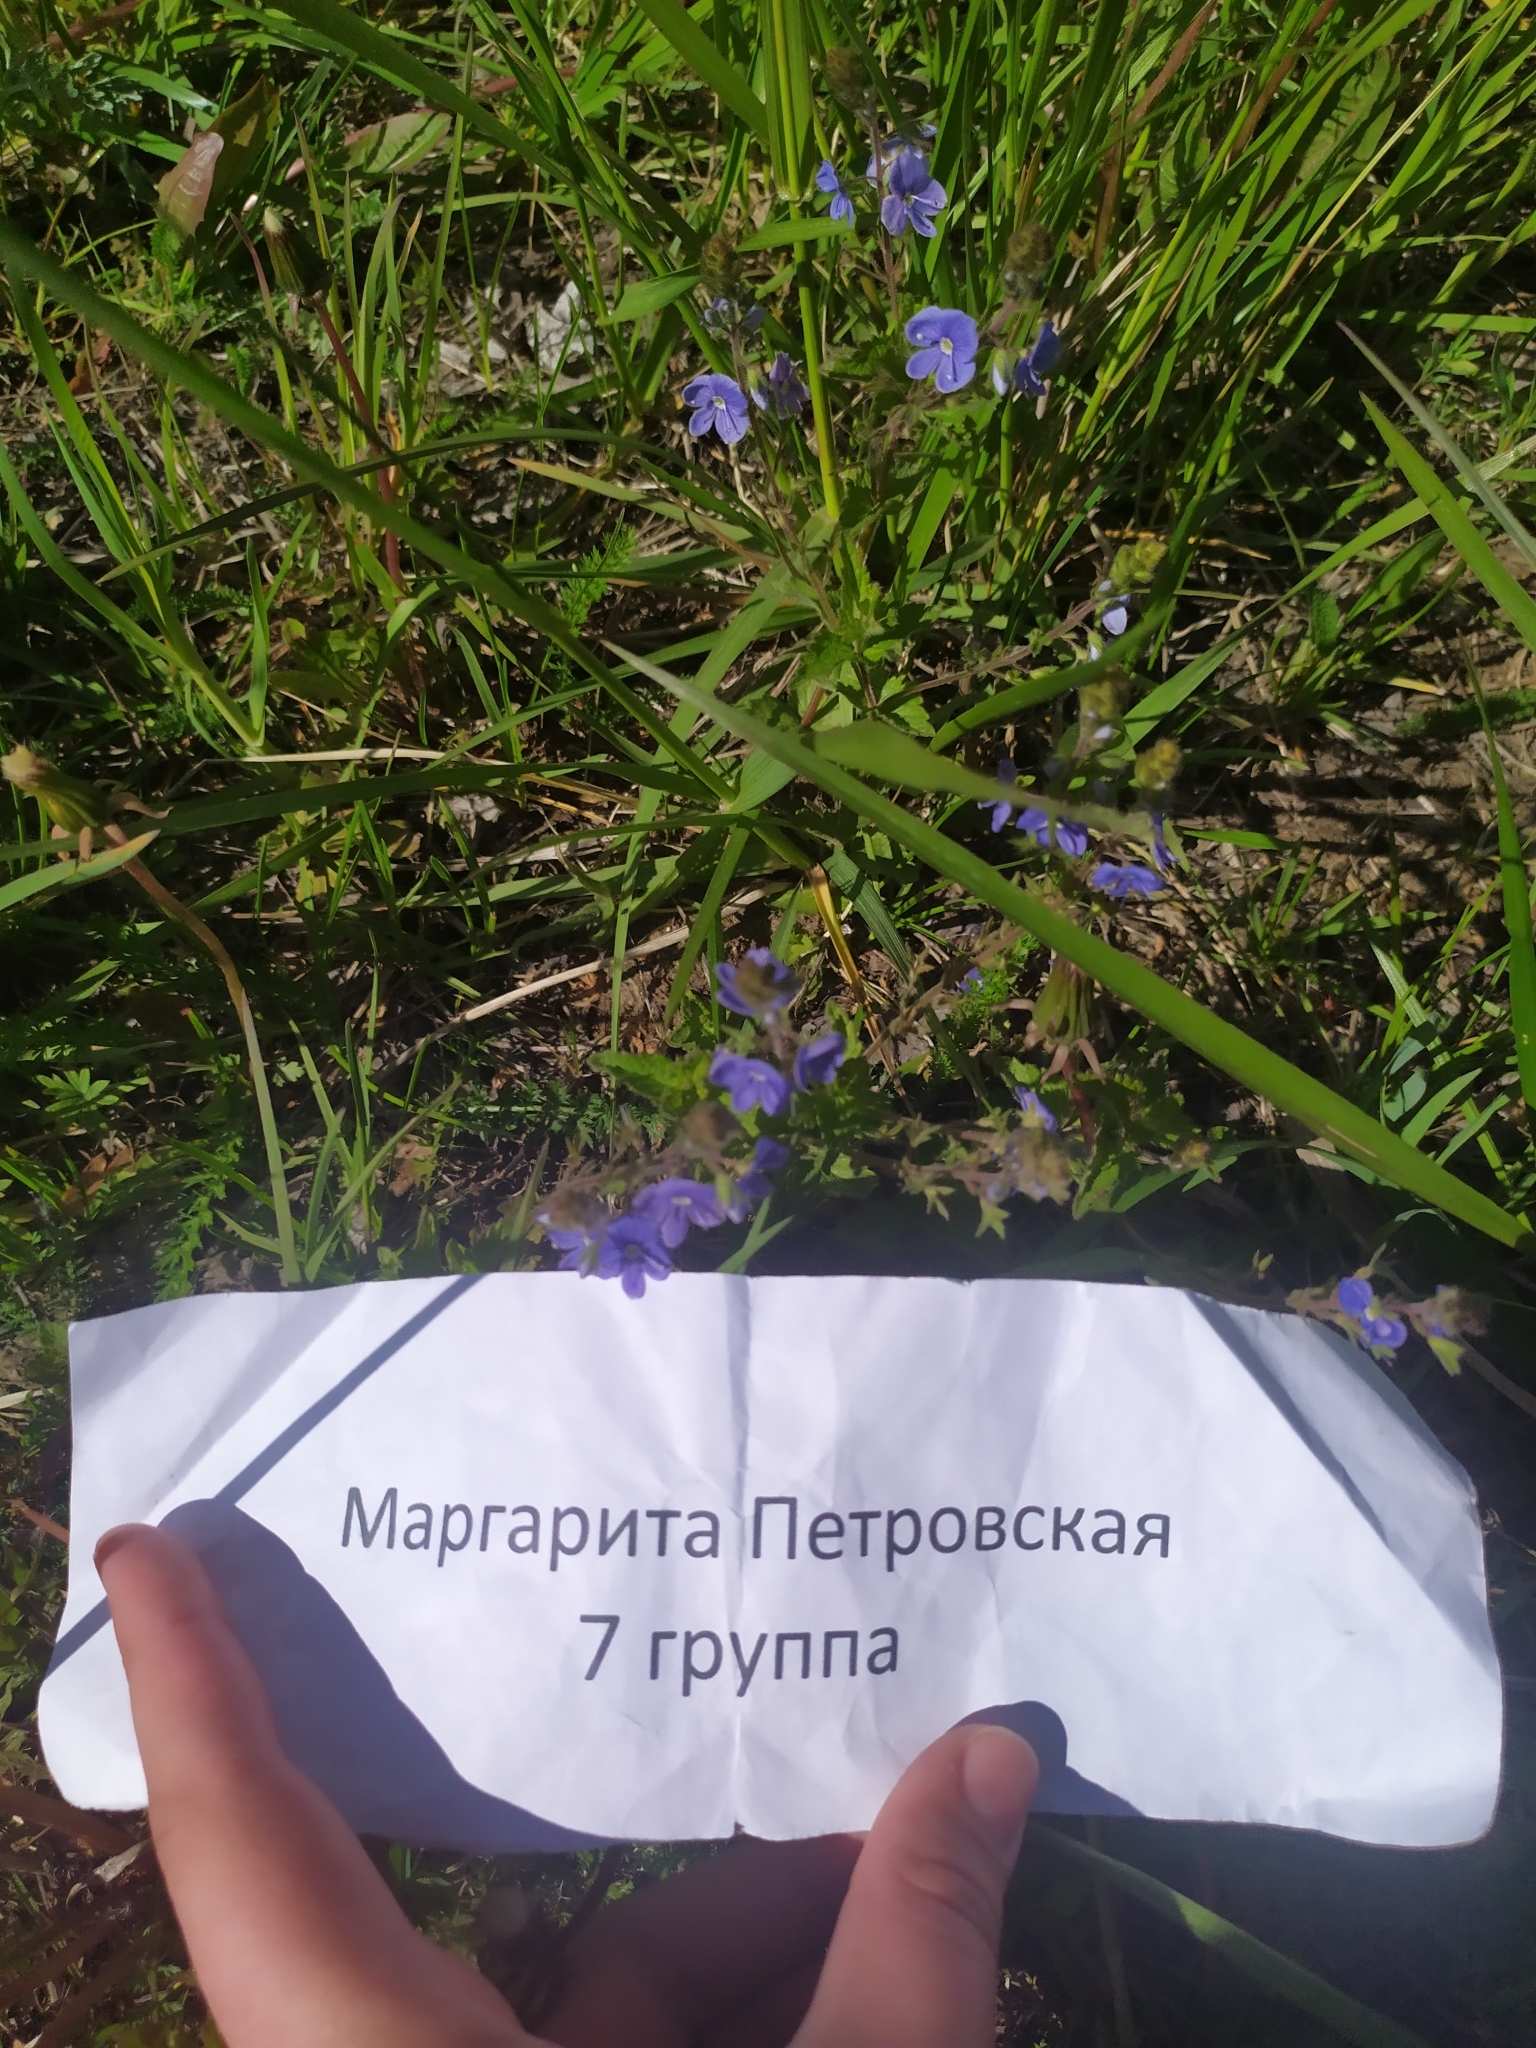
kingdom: Plantae
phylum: Tracheophyta
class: Magnoliopsida
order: Lamiales
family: Plantaginaceae
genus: Veronica
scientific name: Veronica chamaedrys
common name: Germander speedwell
